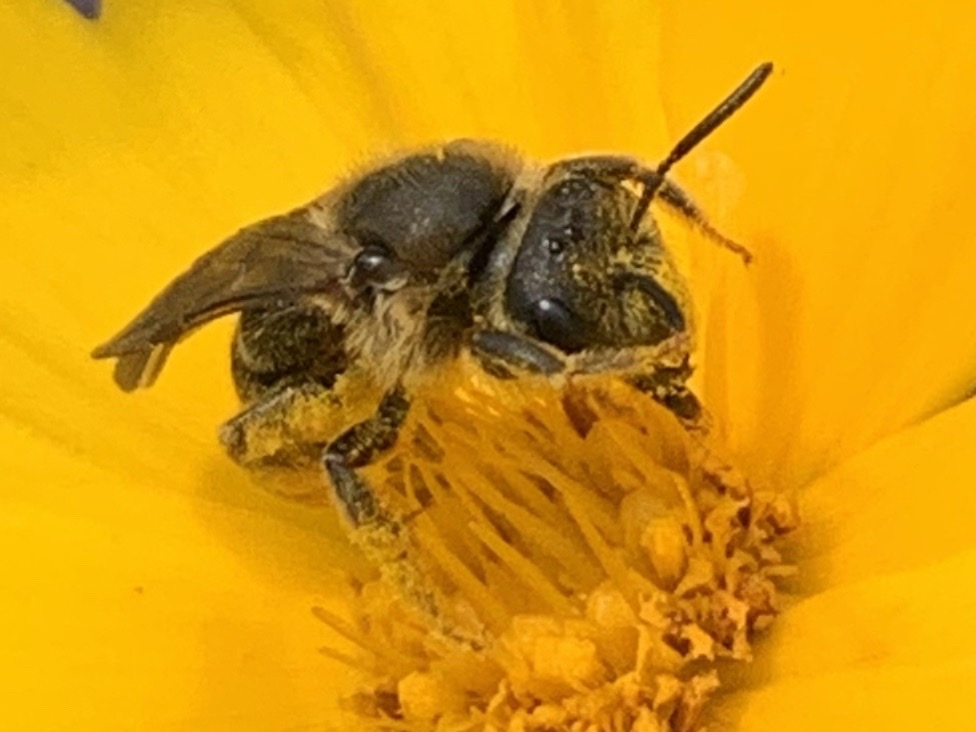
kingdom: Animalia
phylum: Arthropoda
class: Insecta
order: Hymenoptera
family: Halictidae
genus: Halictus
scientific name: Halictus rubicundus
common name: Orange-legged furrow bee
